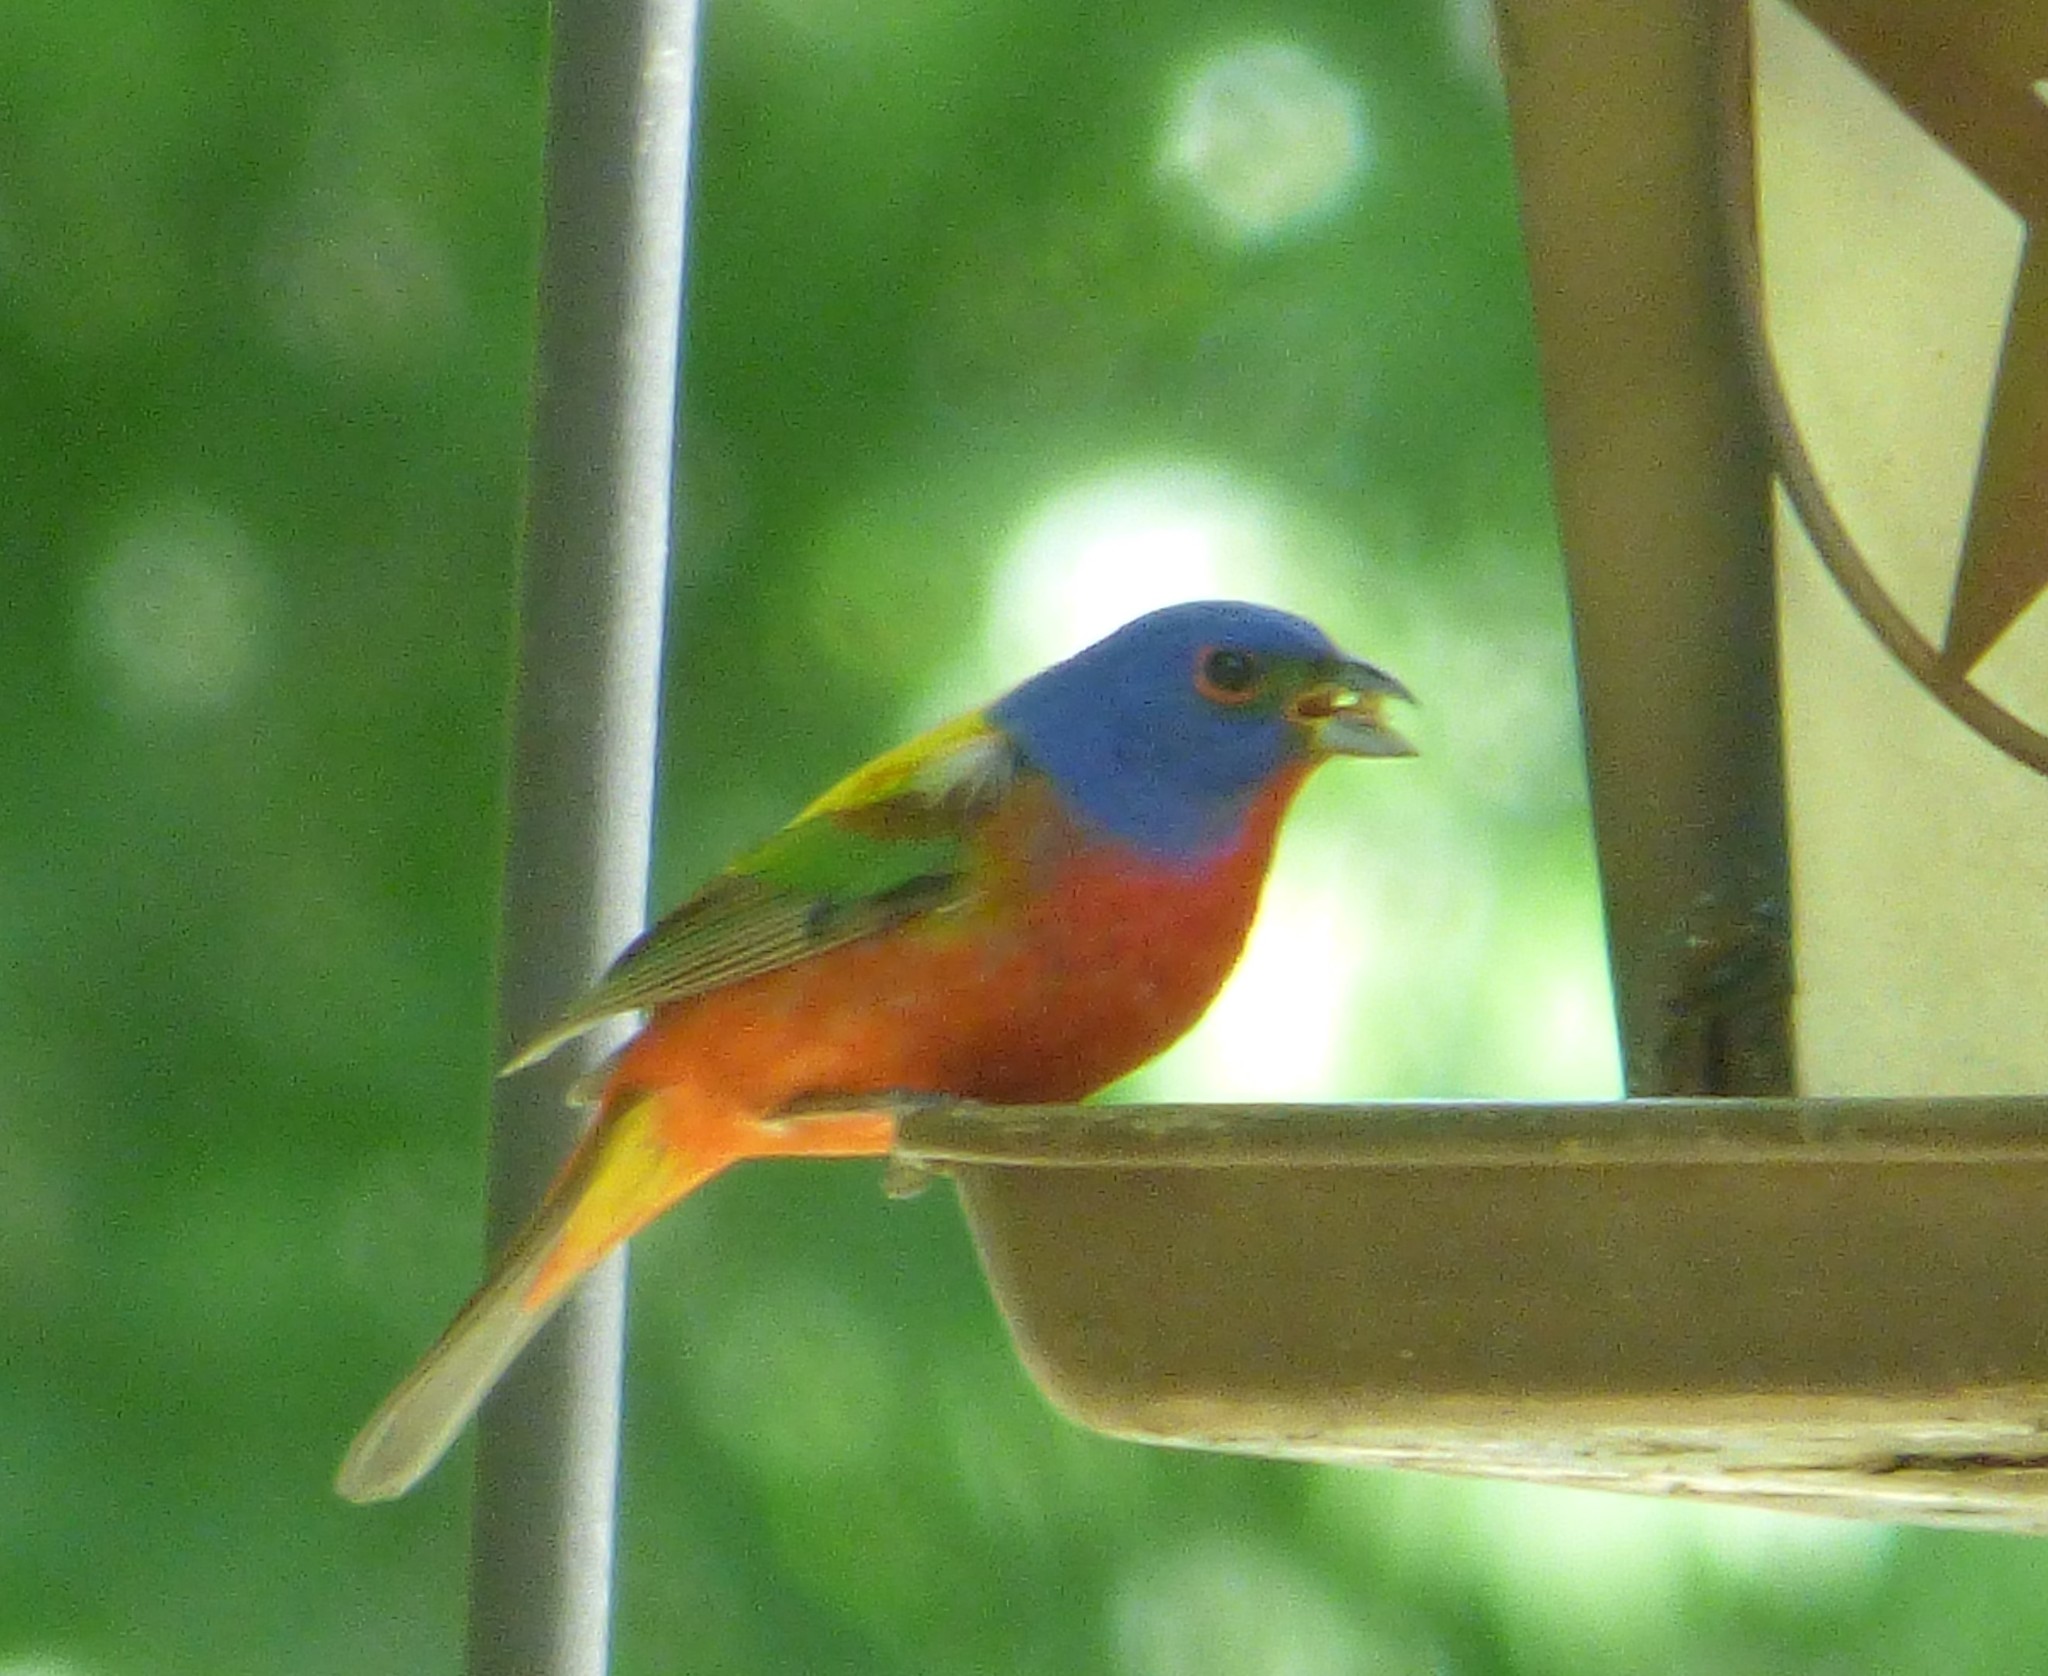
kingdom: Animalia
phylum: Chordata
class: Aves
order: Passeriformes
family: Cardinalidae
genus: Passerina
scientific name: Passerina ciris
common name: Painted bunting
